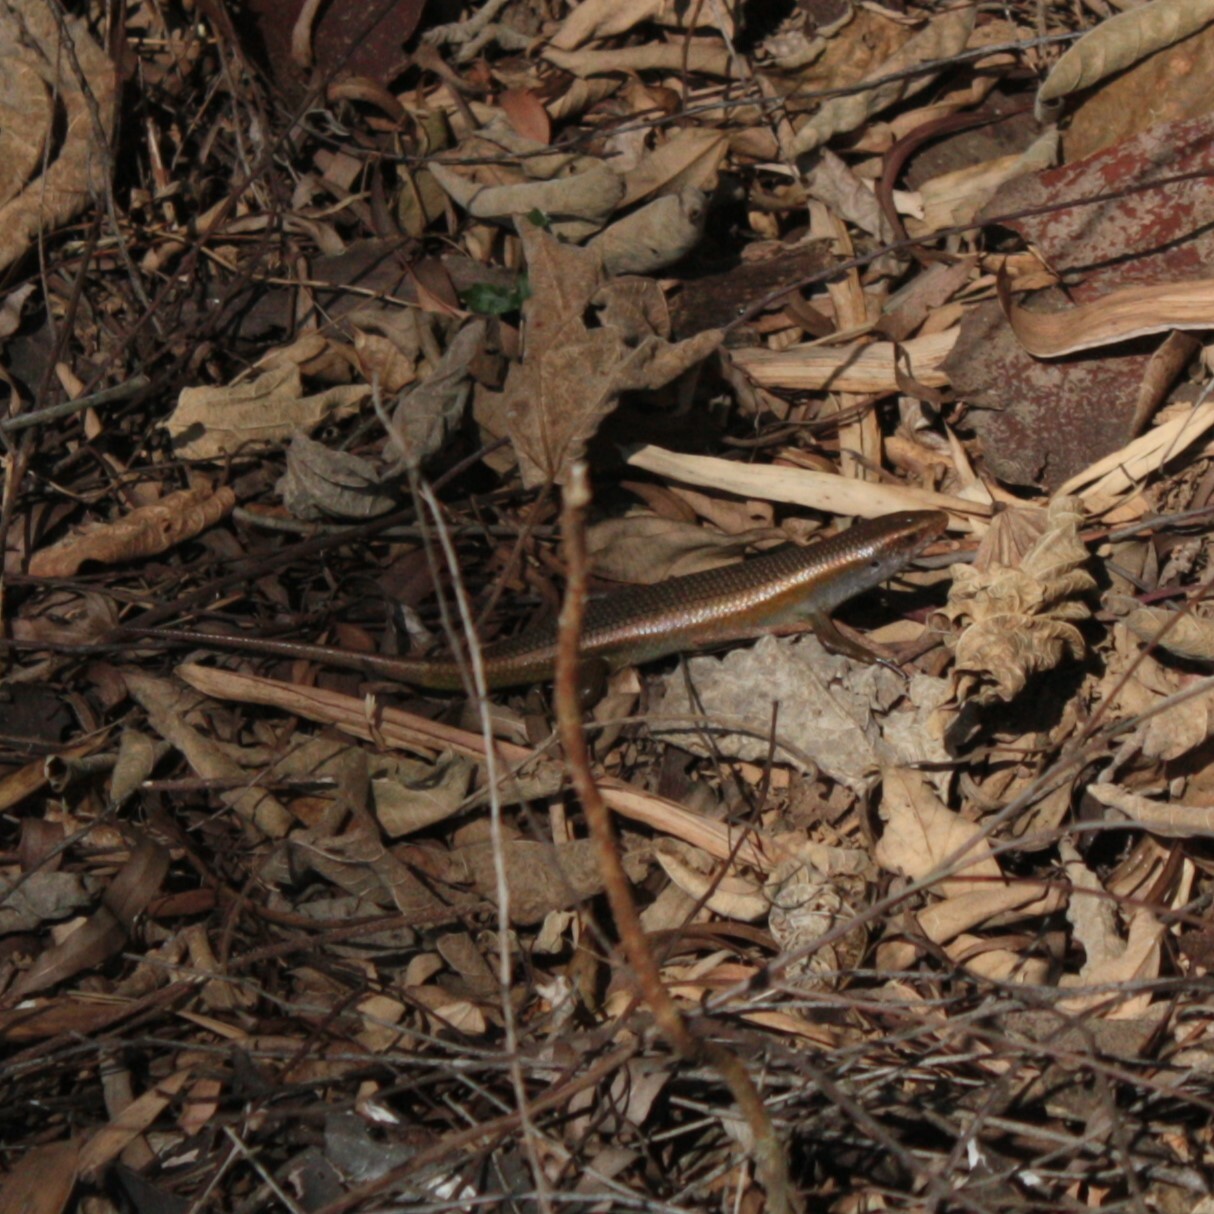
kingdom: Animalia
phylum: Chordata
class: Squamata
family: Scincidae
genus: Eutropis
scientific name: Eutropis multifasciata
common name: Common mabuya
